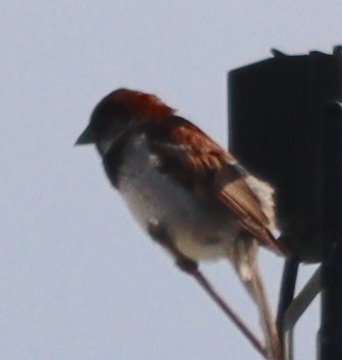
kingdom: Animalia
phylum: Chordata
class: Aves
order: Passeriformes
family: Passeridae
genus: Passer
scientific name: Passer domesticus
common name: House sparrow
